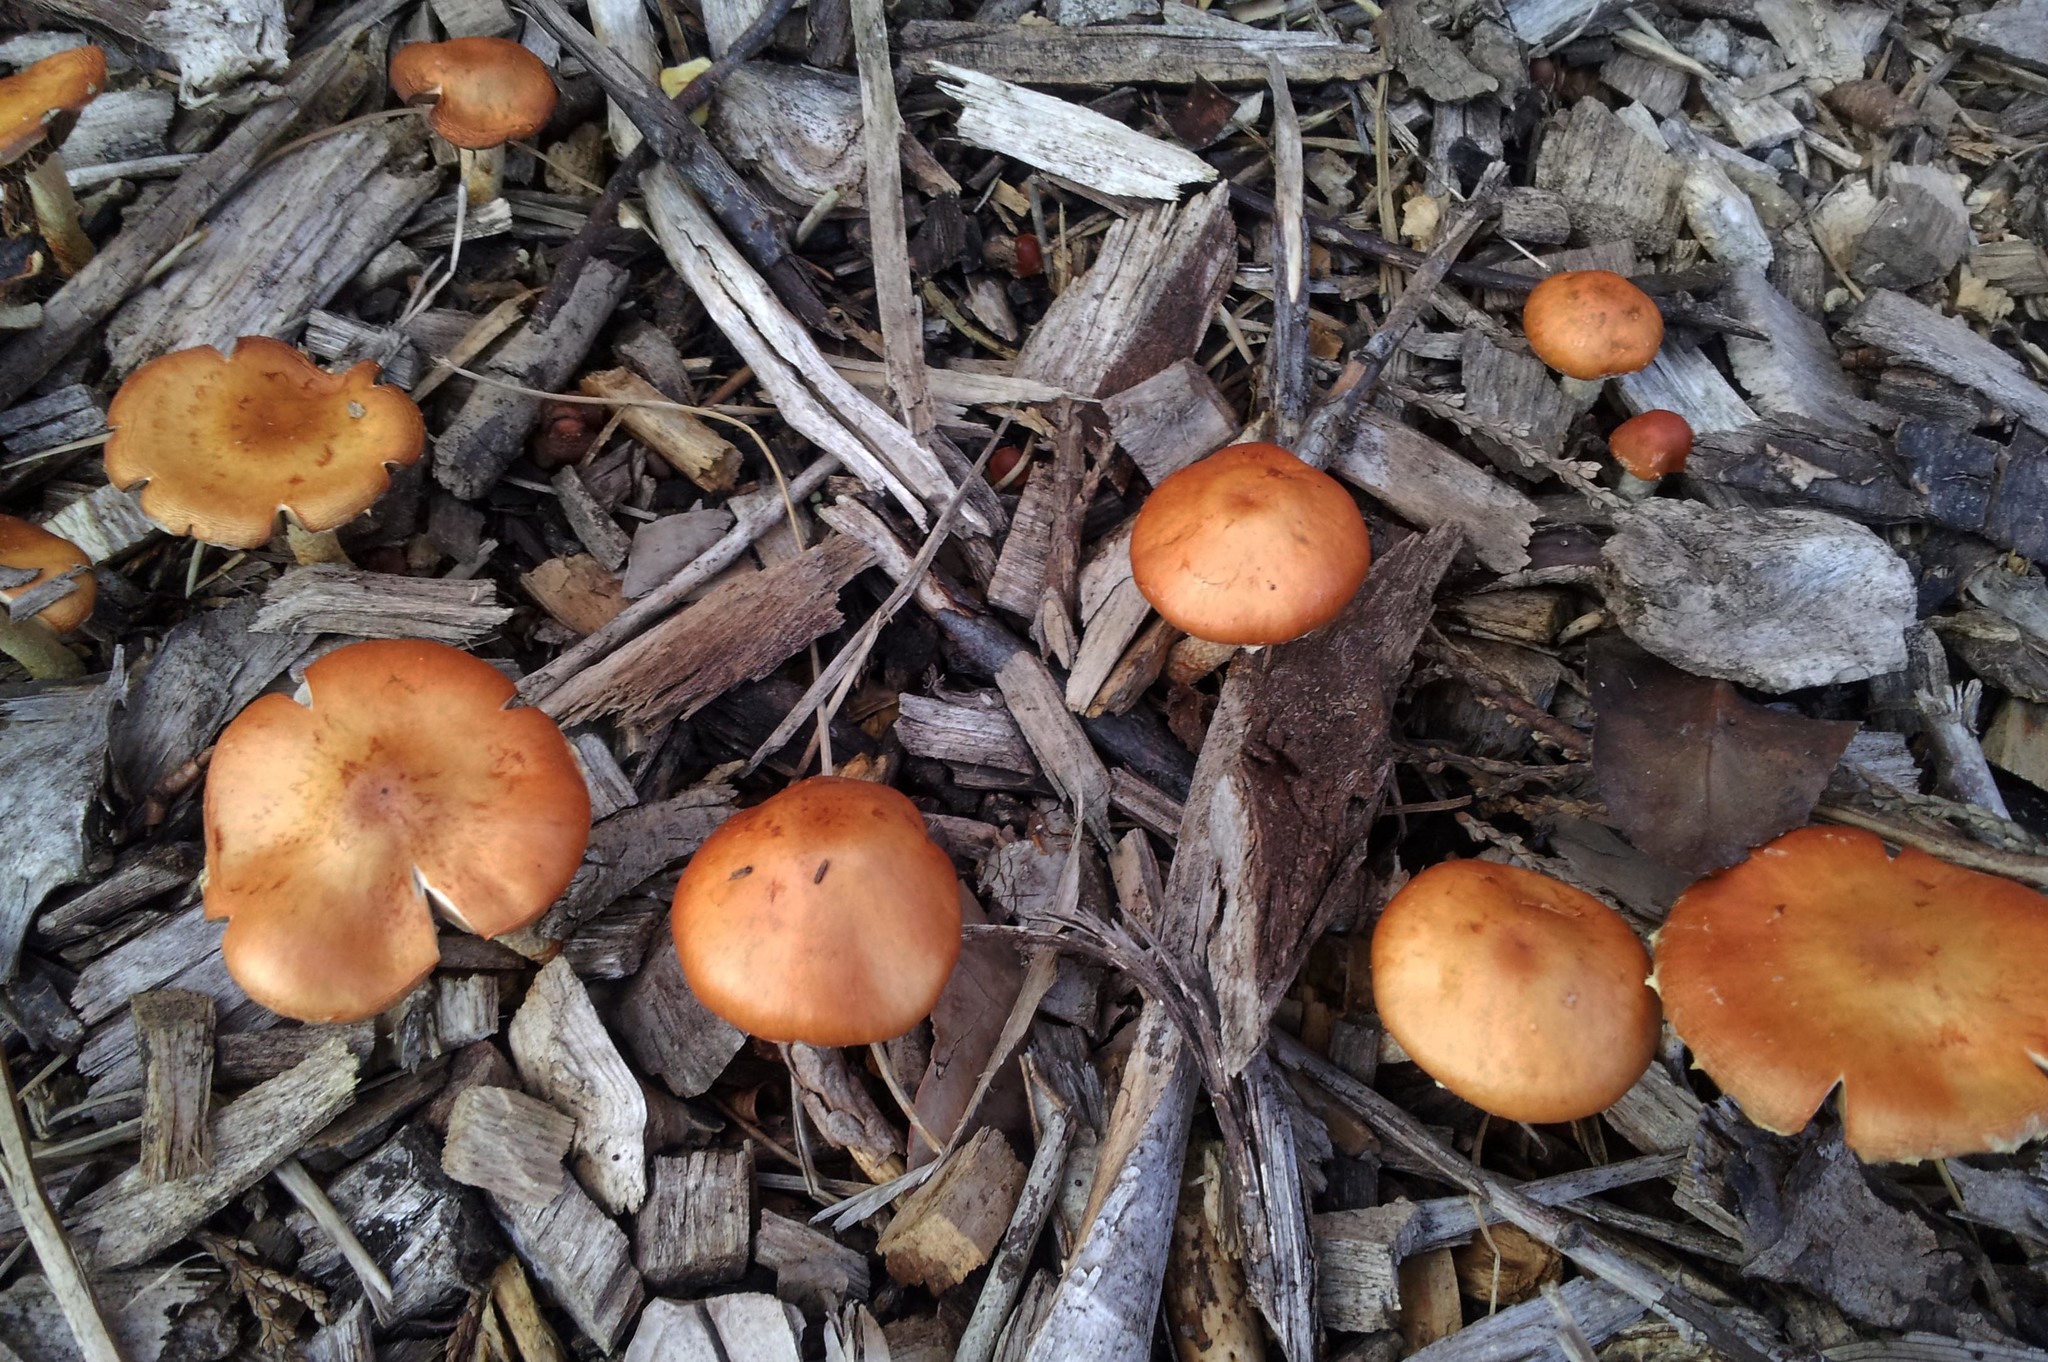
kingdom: Fungi
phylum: Basidiomycota
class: Agaricomycetes
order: Agaricales
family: Strophariaceae
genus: Leratiomyces
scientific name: Leratiomyces ceres
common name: Redlead roundhead
